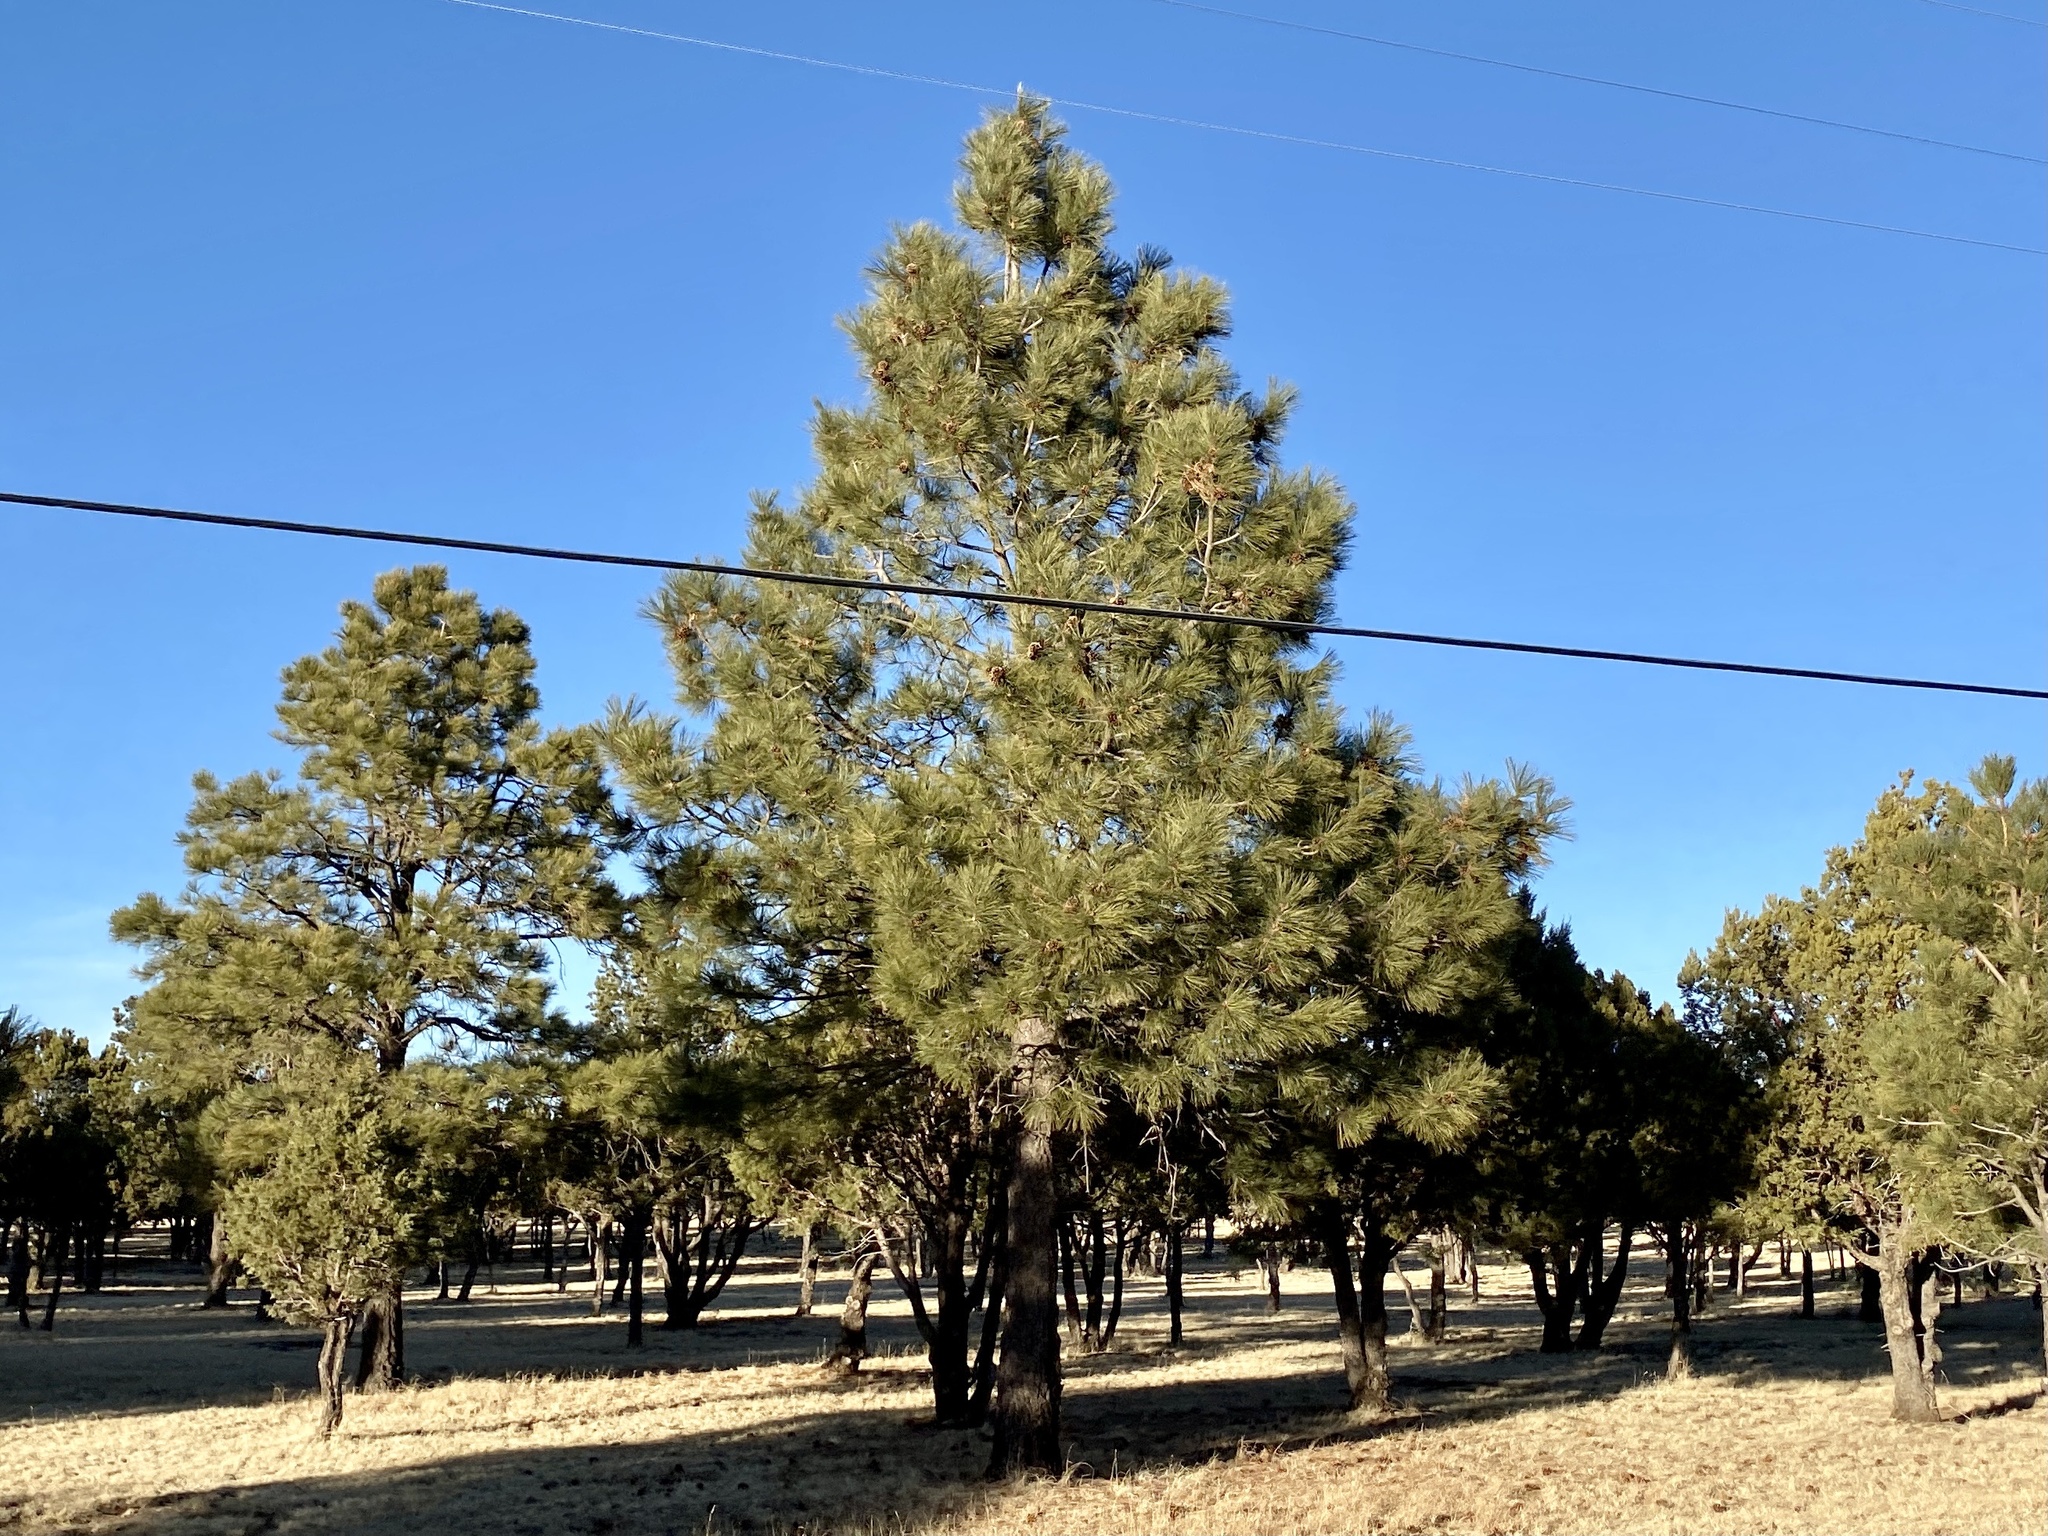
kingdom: Plantae
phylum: Tracheophyta
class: Pinopsida
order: Pinales
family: Pinaceae
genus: Pinus
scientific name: Pinus ponderosa
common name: Western yellow-pine
